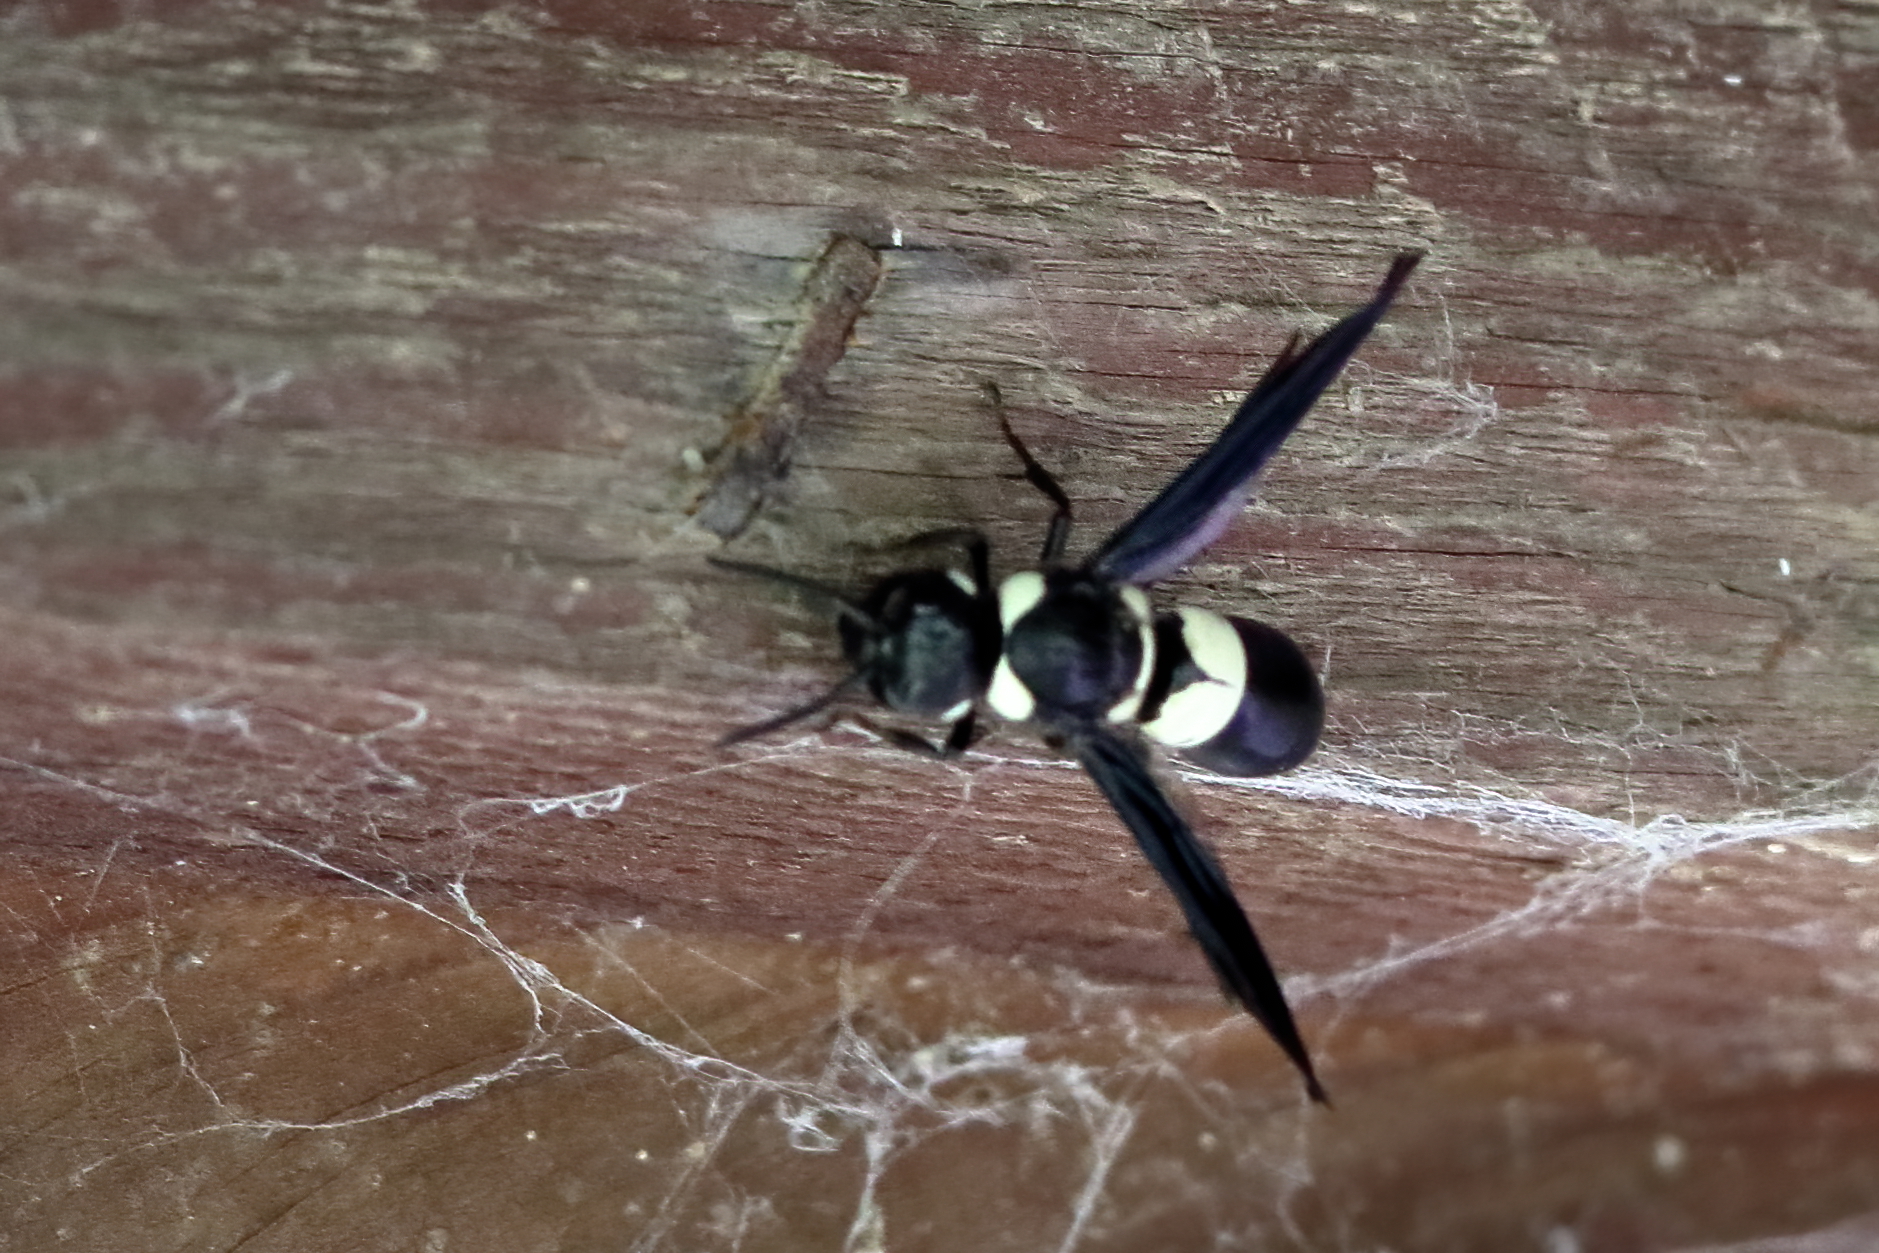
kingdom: Animalia
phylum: Arthropoda
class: Insecta
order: Hymenoptera
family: Eumenidae
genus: Euodynerus
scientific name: Euodynerus bidens
